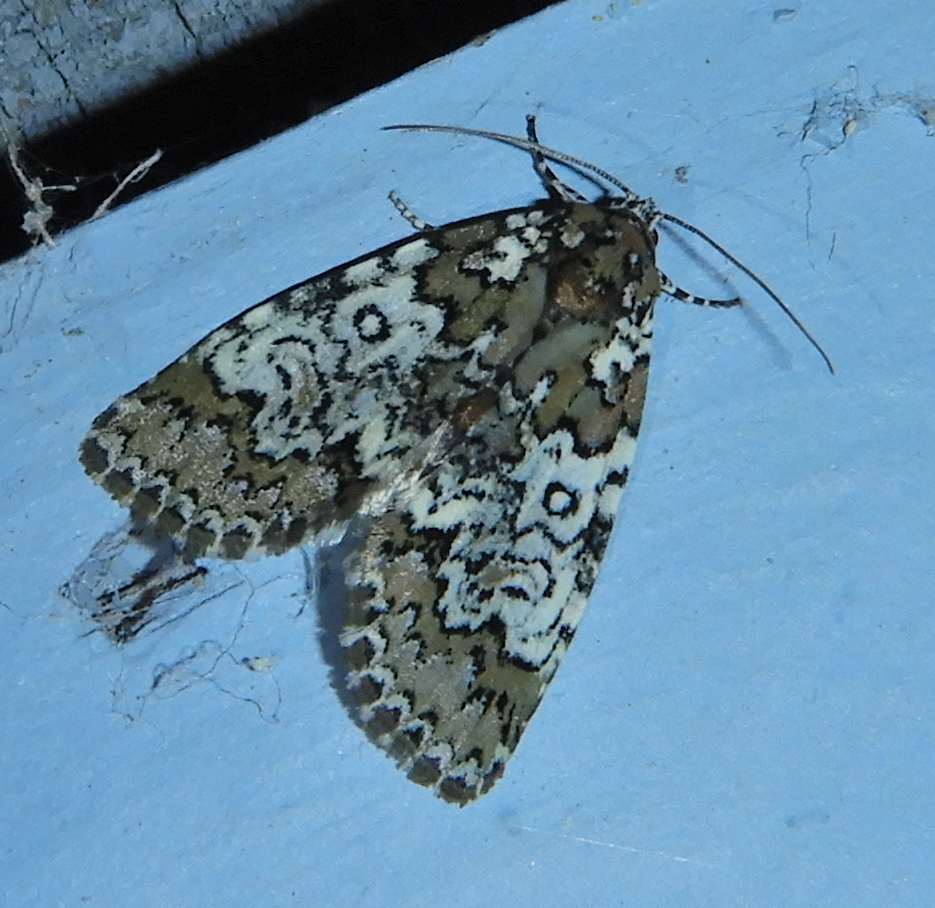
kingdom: Animalia
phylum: Arthropoda
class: Insecta
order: Lepidoptera
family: Noctuidae
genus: Cerma
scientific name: Cerma cora
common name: Bird dropping moth
